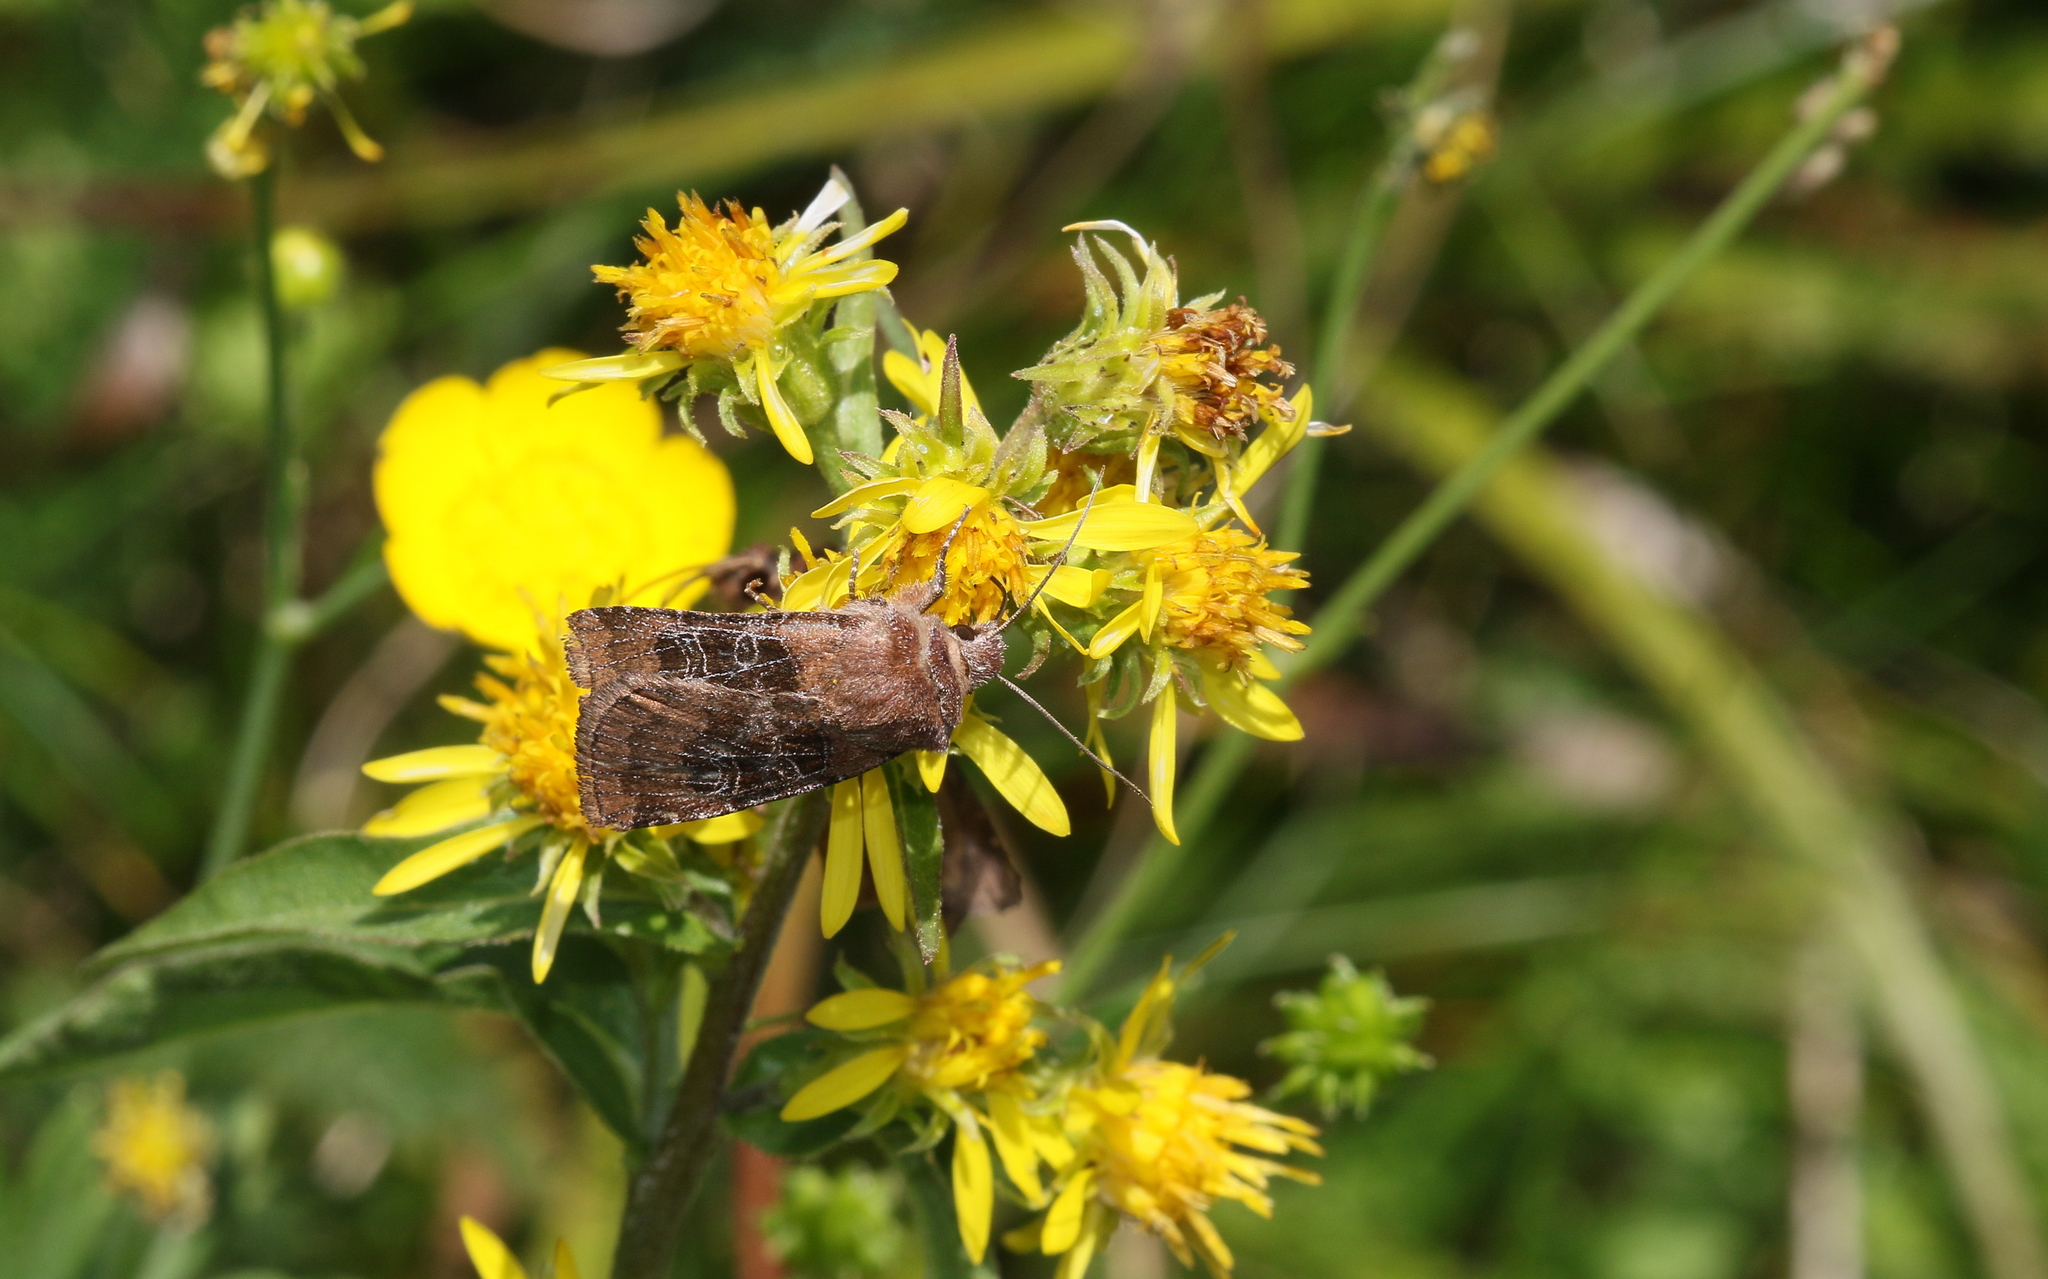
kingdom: Animalia
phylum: Arthropoda
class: Insecta
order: Lepidoptera
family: Noctuidae
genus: Chersotis
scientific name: Chersotis cuprea
